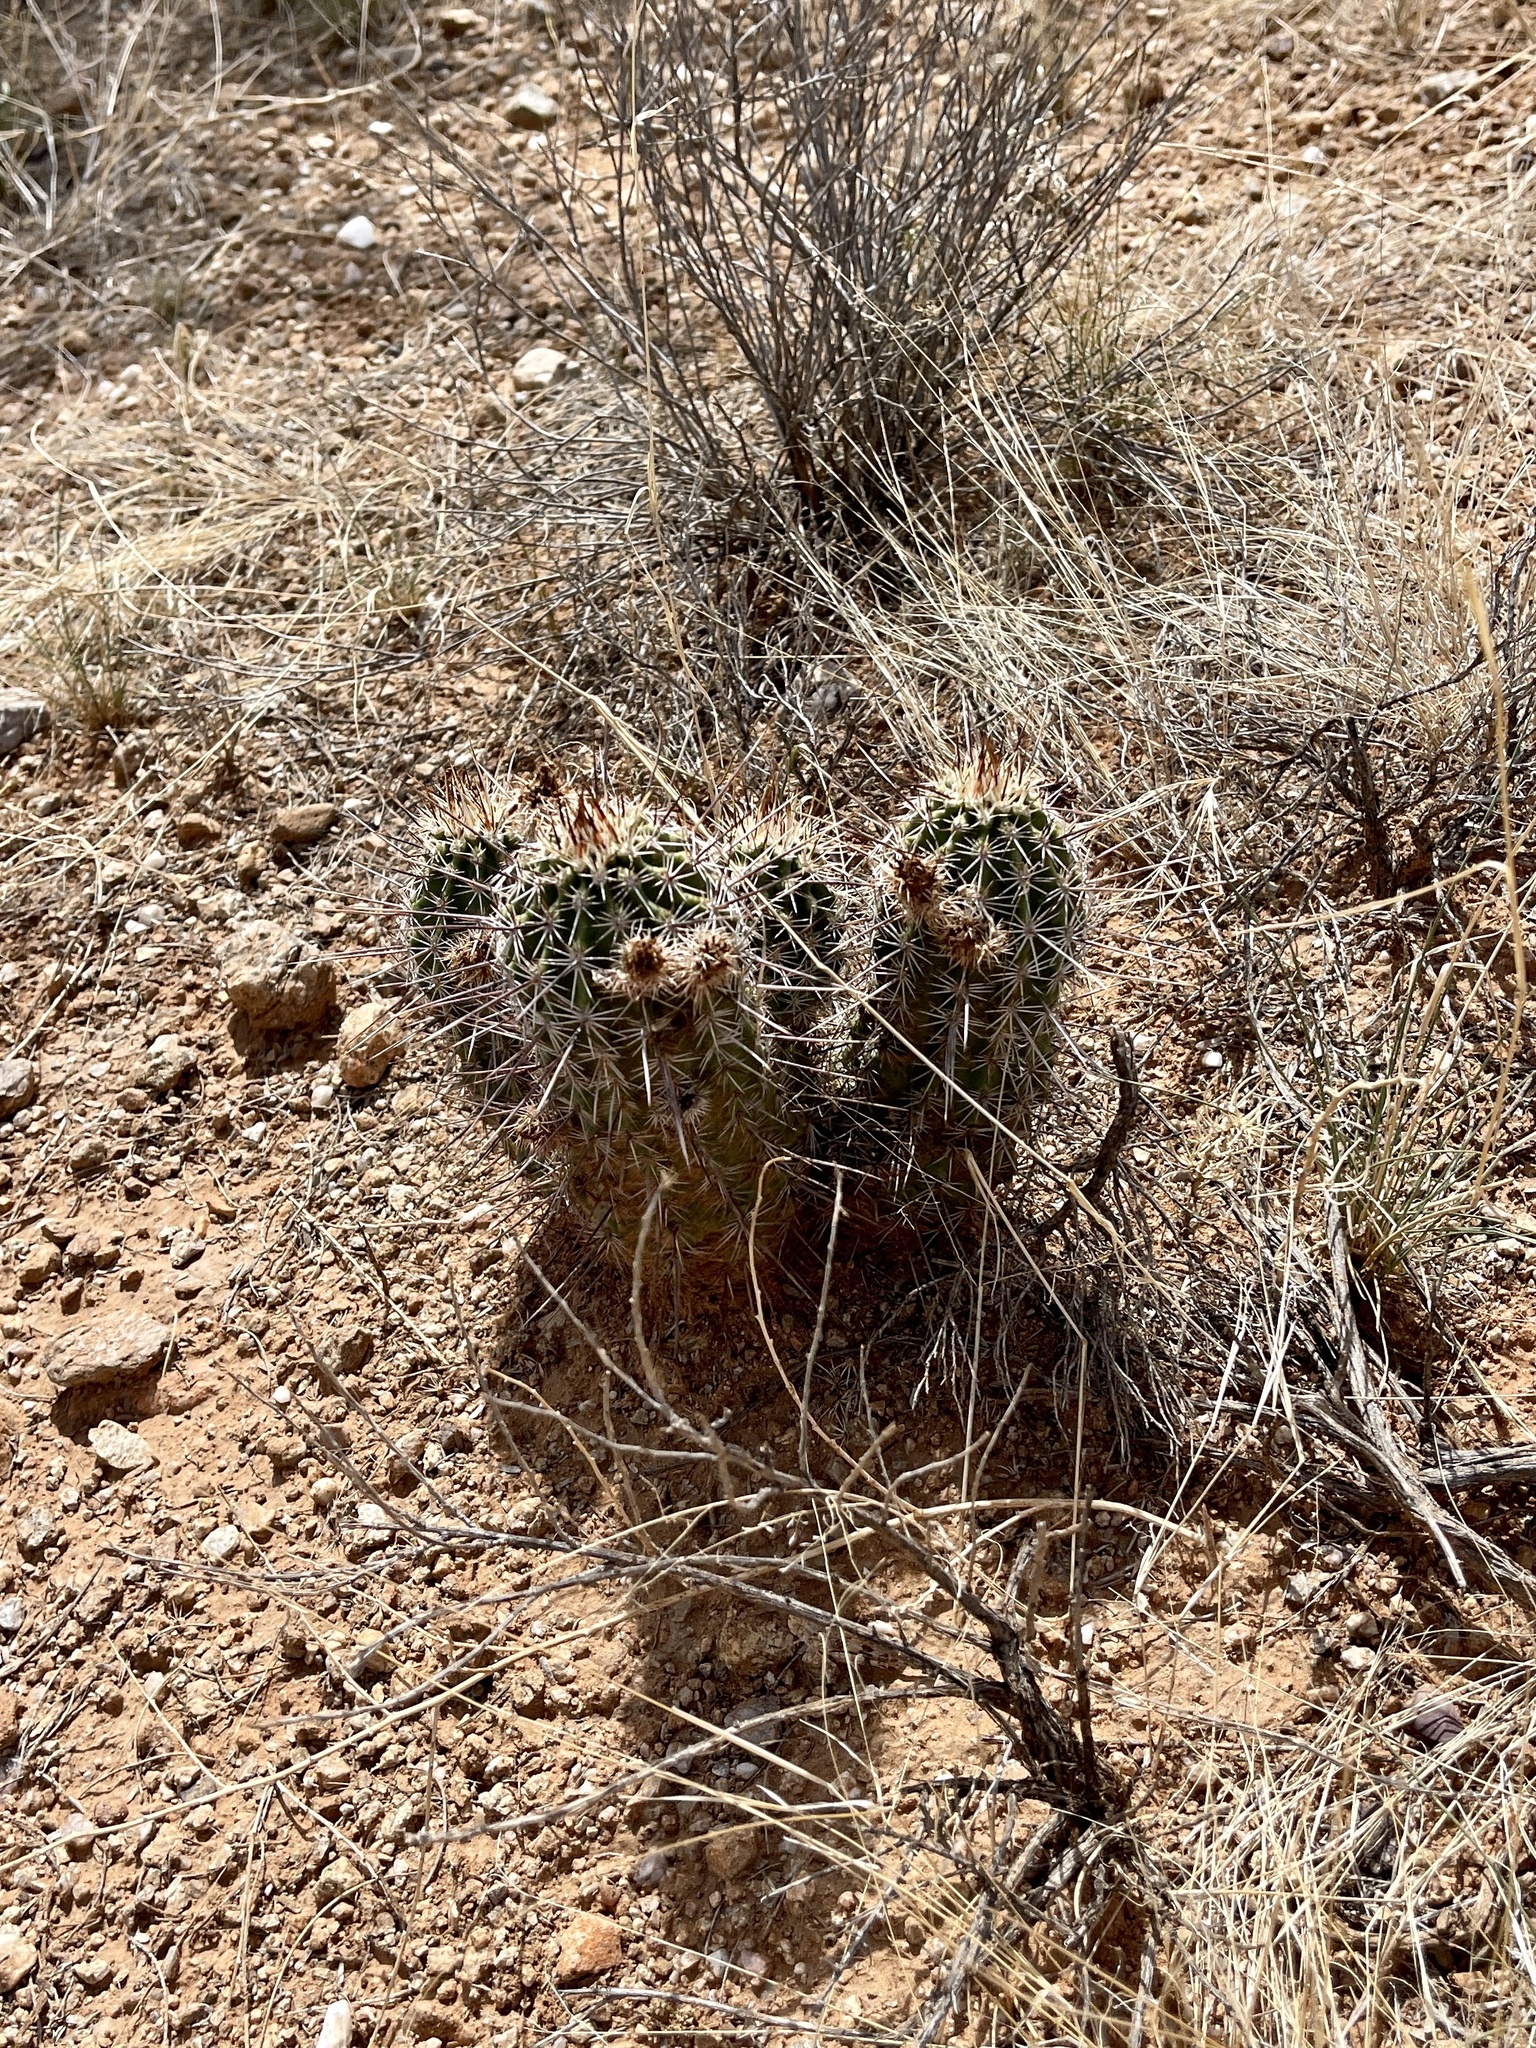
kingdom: Plantae
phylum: Tracheophyta
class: Magnoliopsida
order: Caryophyllales
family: Cactaceae
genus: Echinocereus
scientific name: Echinocereus fasciculatus
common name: Bundle hedgehog
